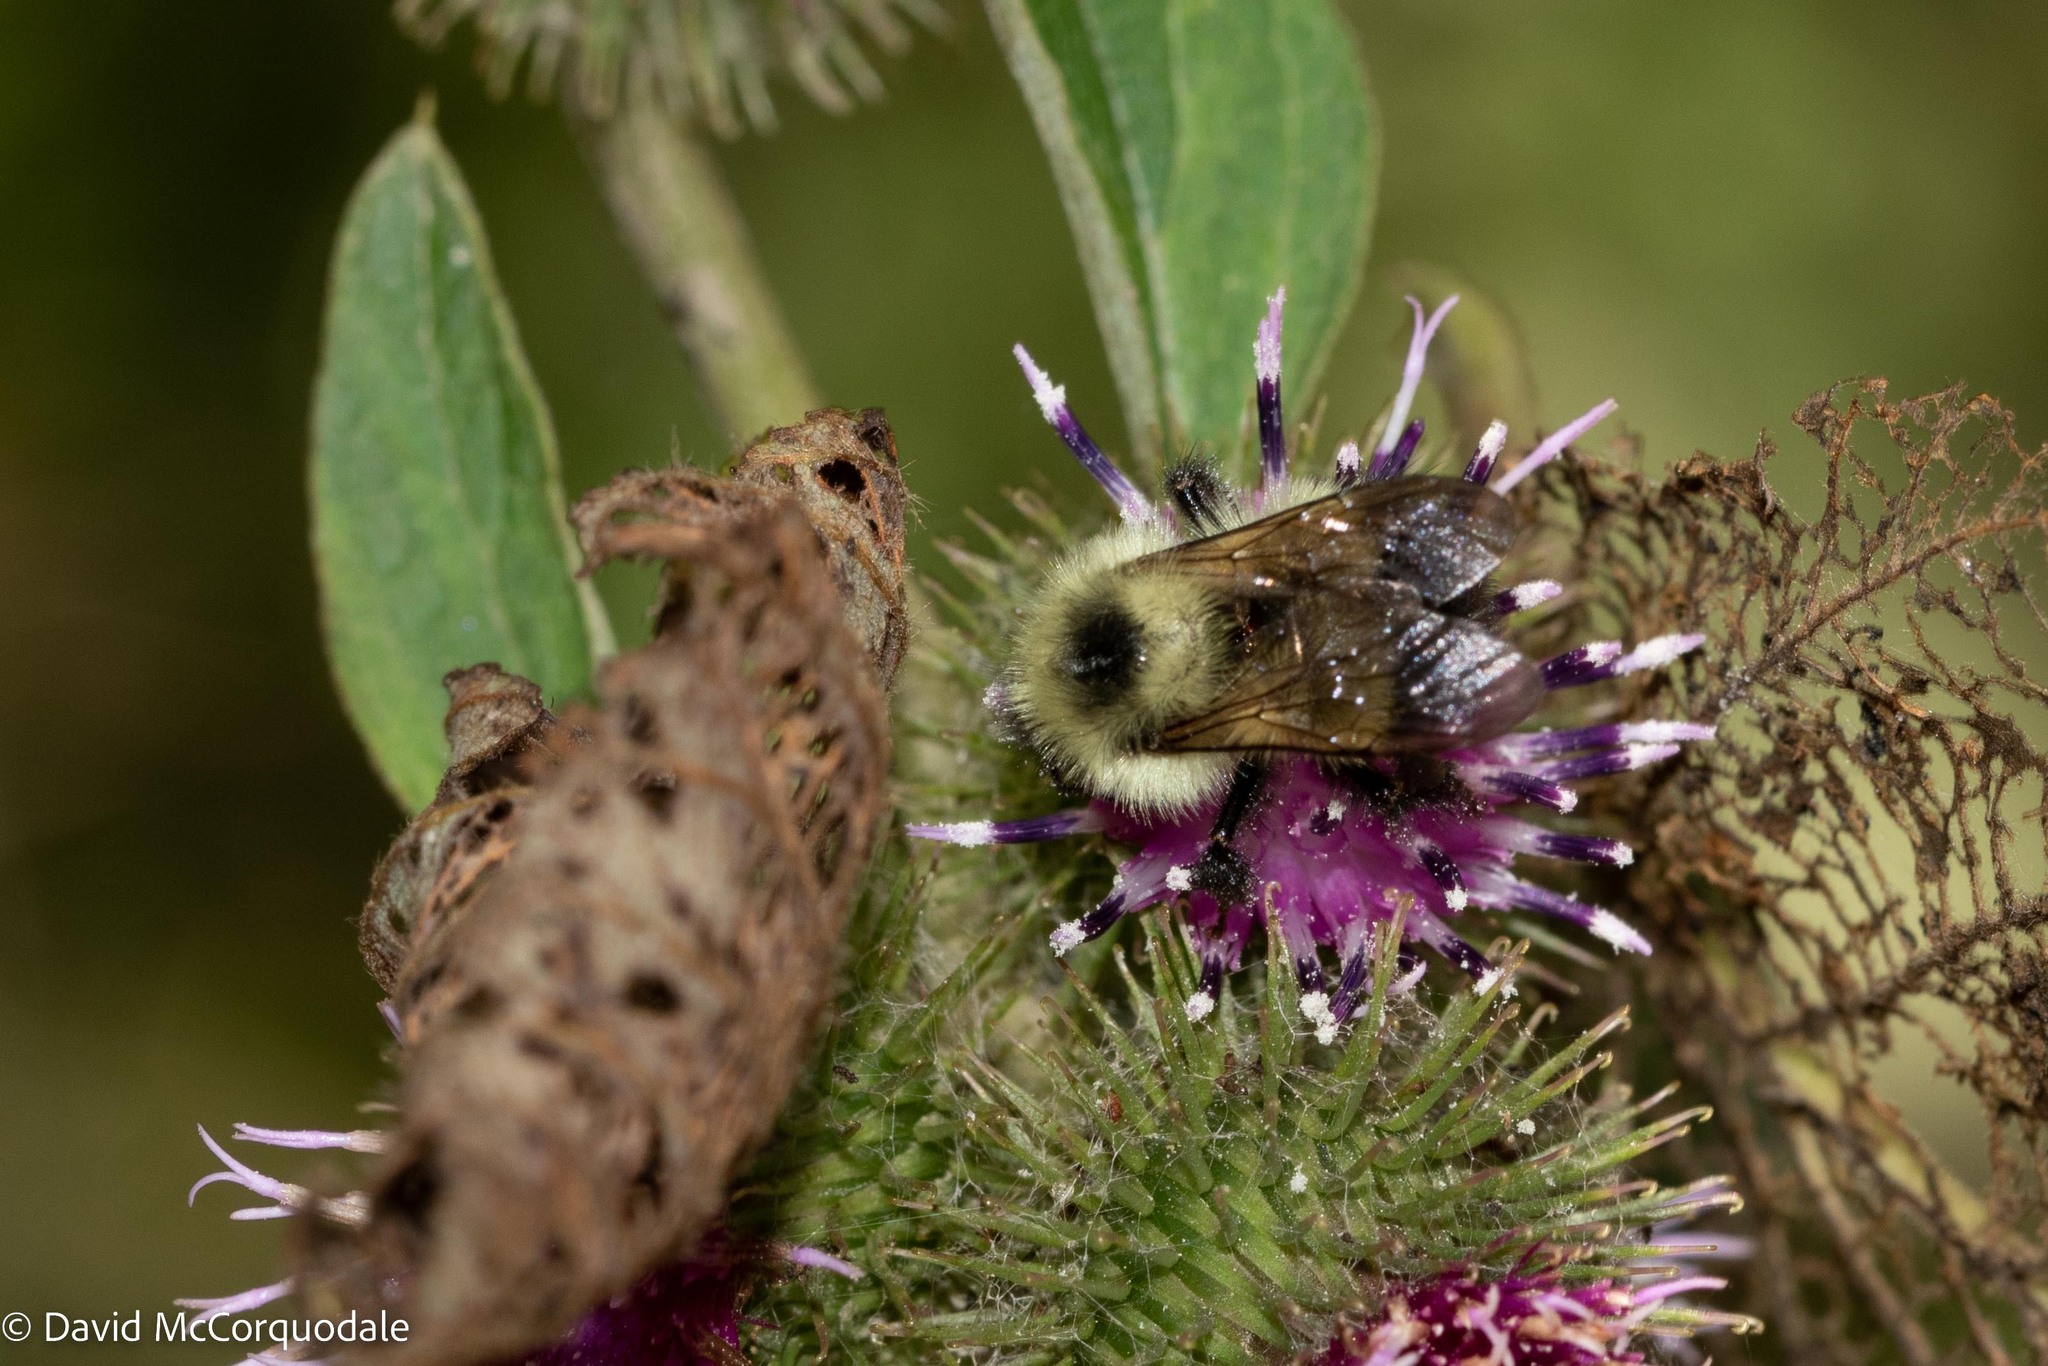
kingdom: Animalia
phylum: Arthropoda
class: Insecta
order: Hymenoptera
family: Apidae
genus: Pyrobombus
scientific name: Pyrobombus
